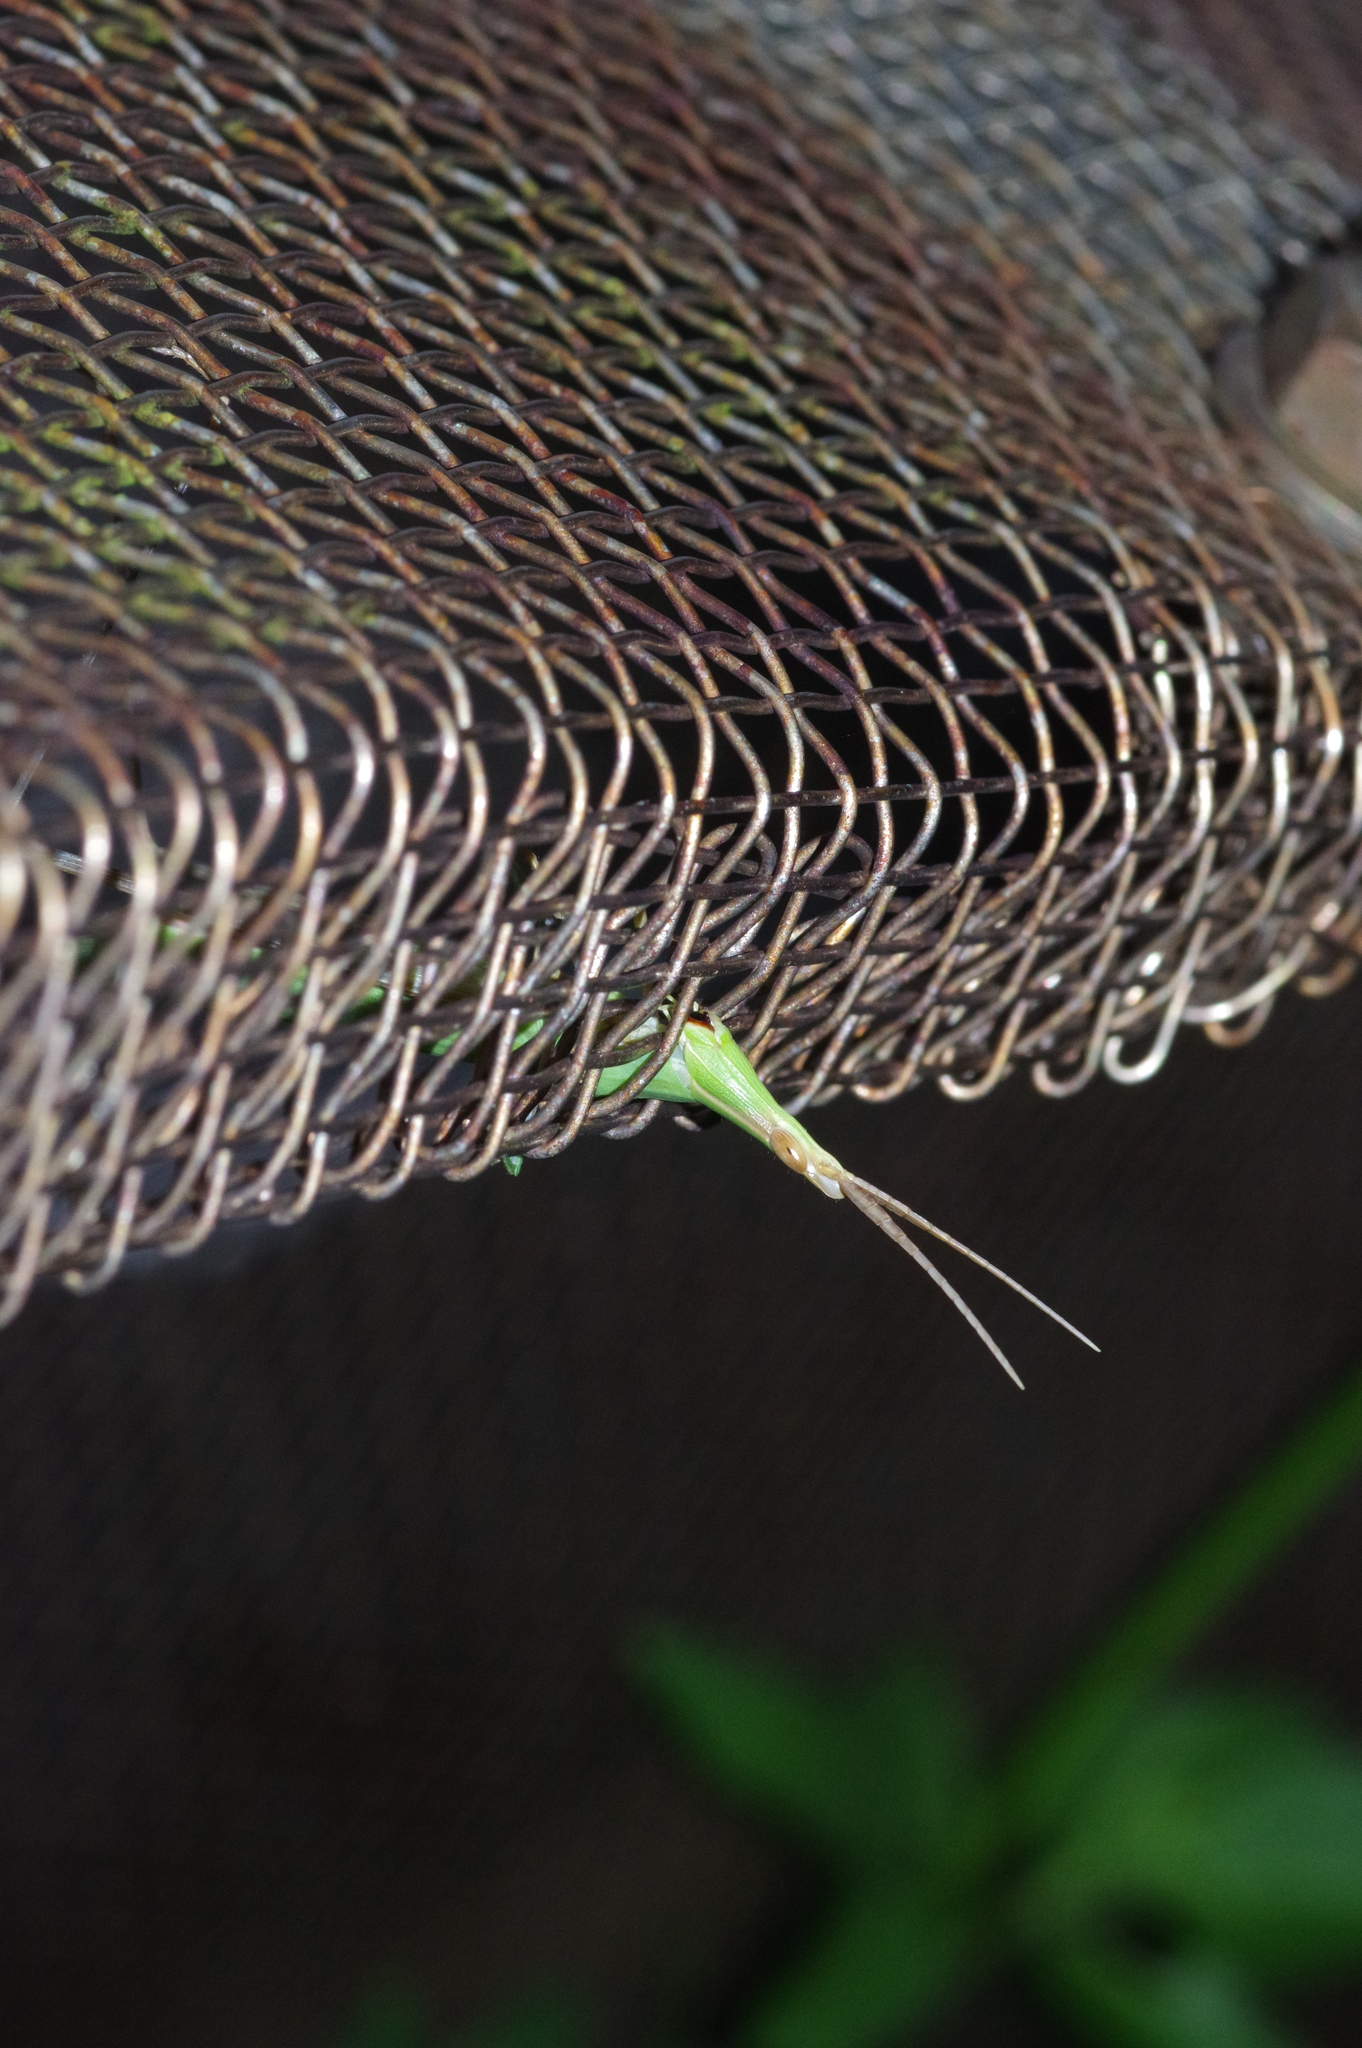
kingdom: Animalia
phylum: Arthropoda
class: Insecta
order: Orthoptera
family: Acrididae
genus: Acrida
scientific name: Acrida cinerea
